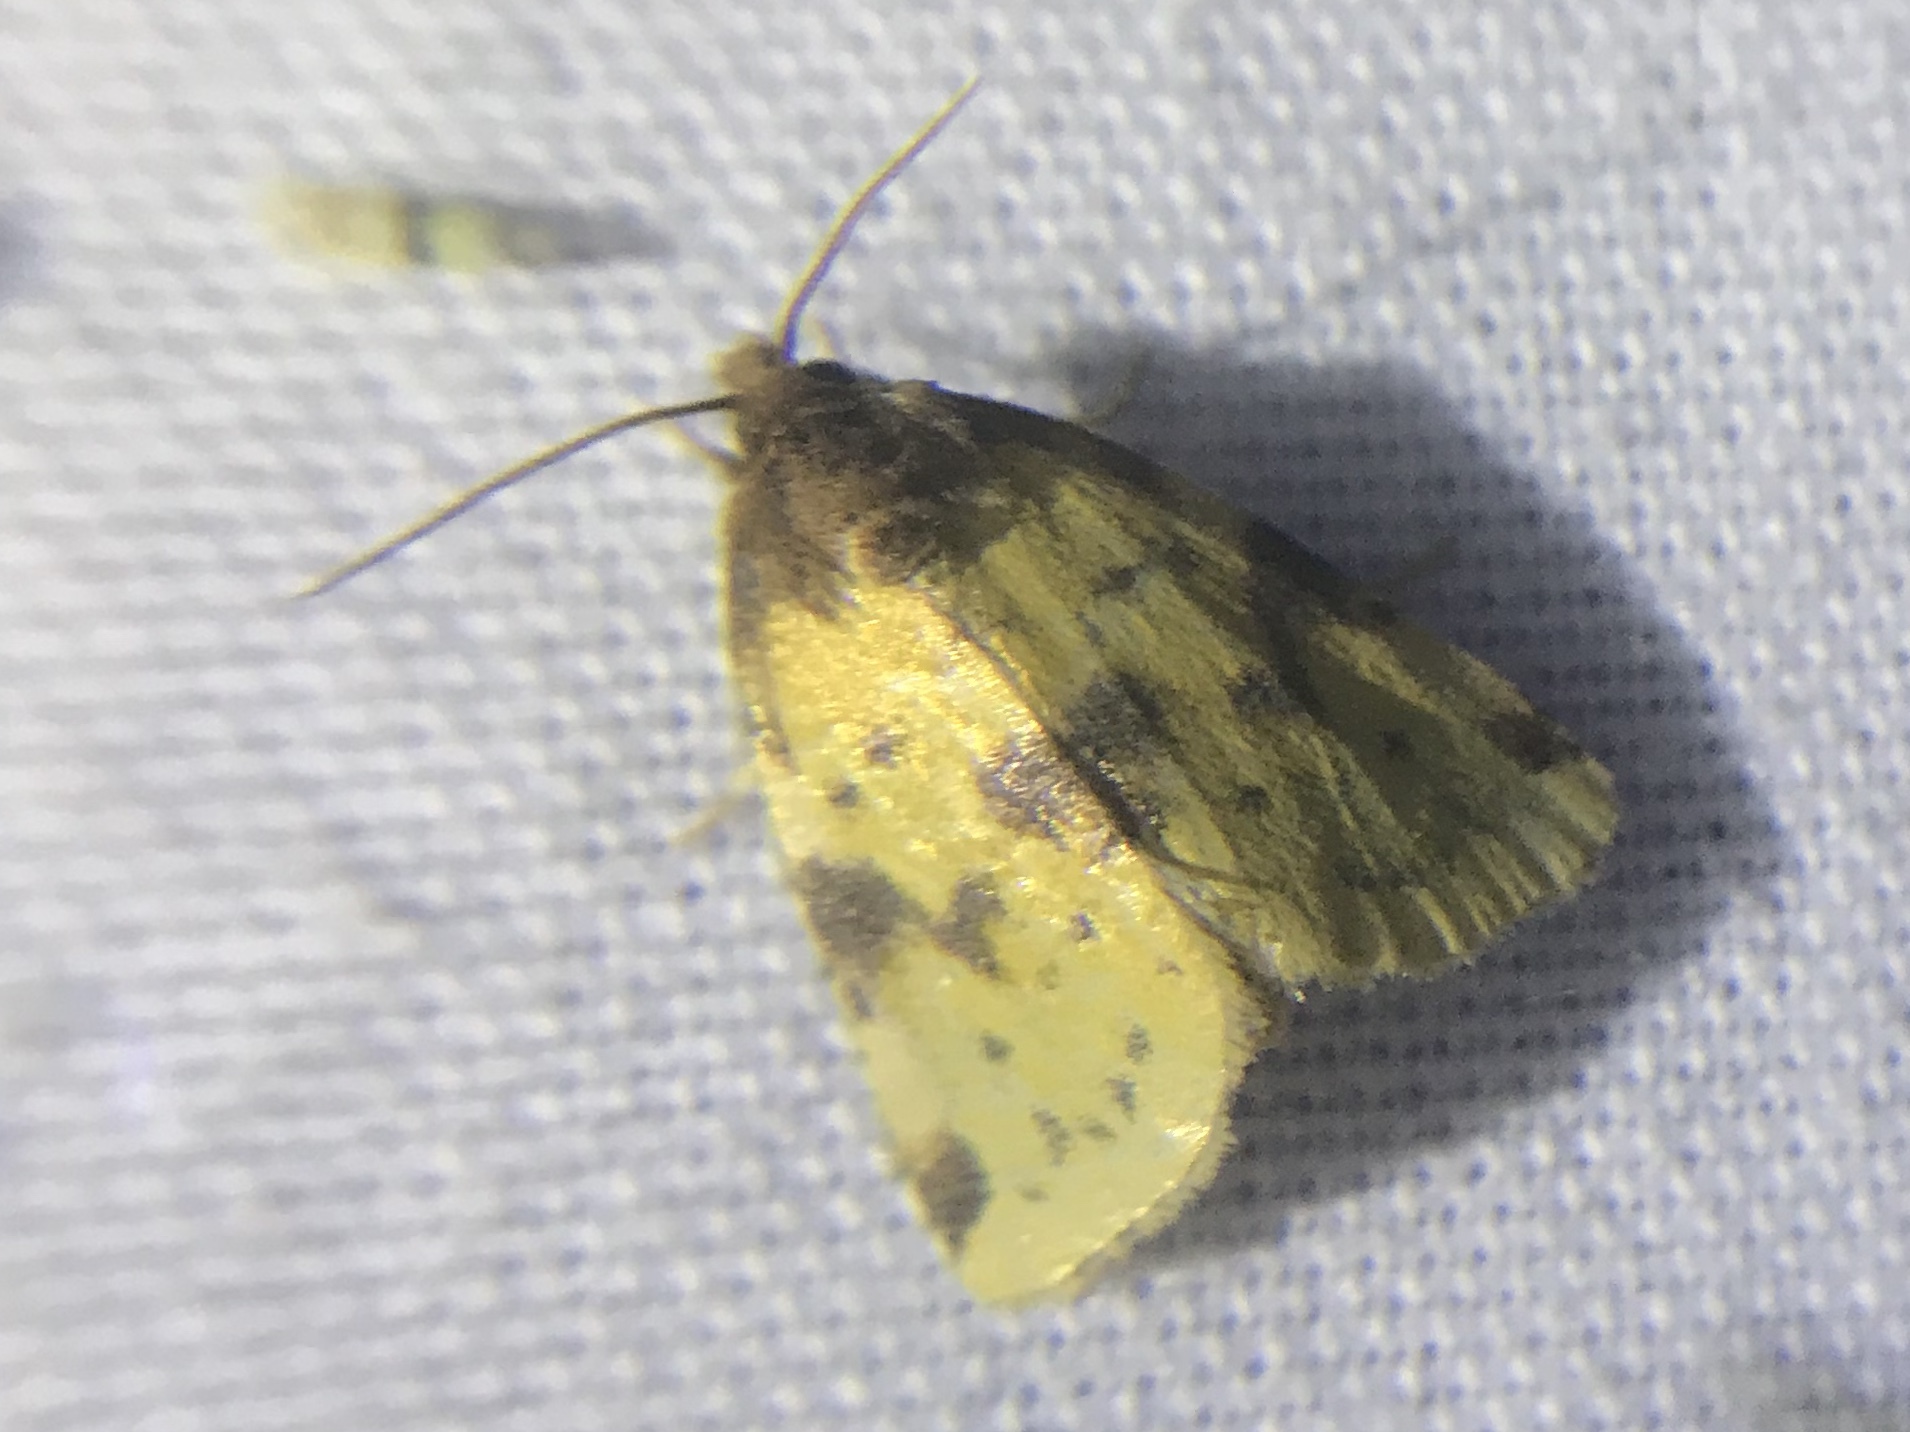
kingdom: Animalia
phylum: Arthropoda
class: Insecta
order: Lepidoptera
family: Noctuidae
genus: Azenia
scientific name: Azenia obtusa
